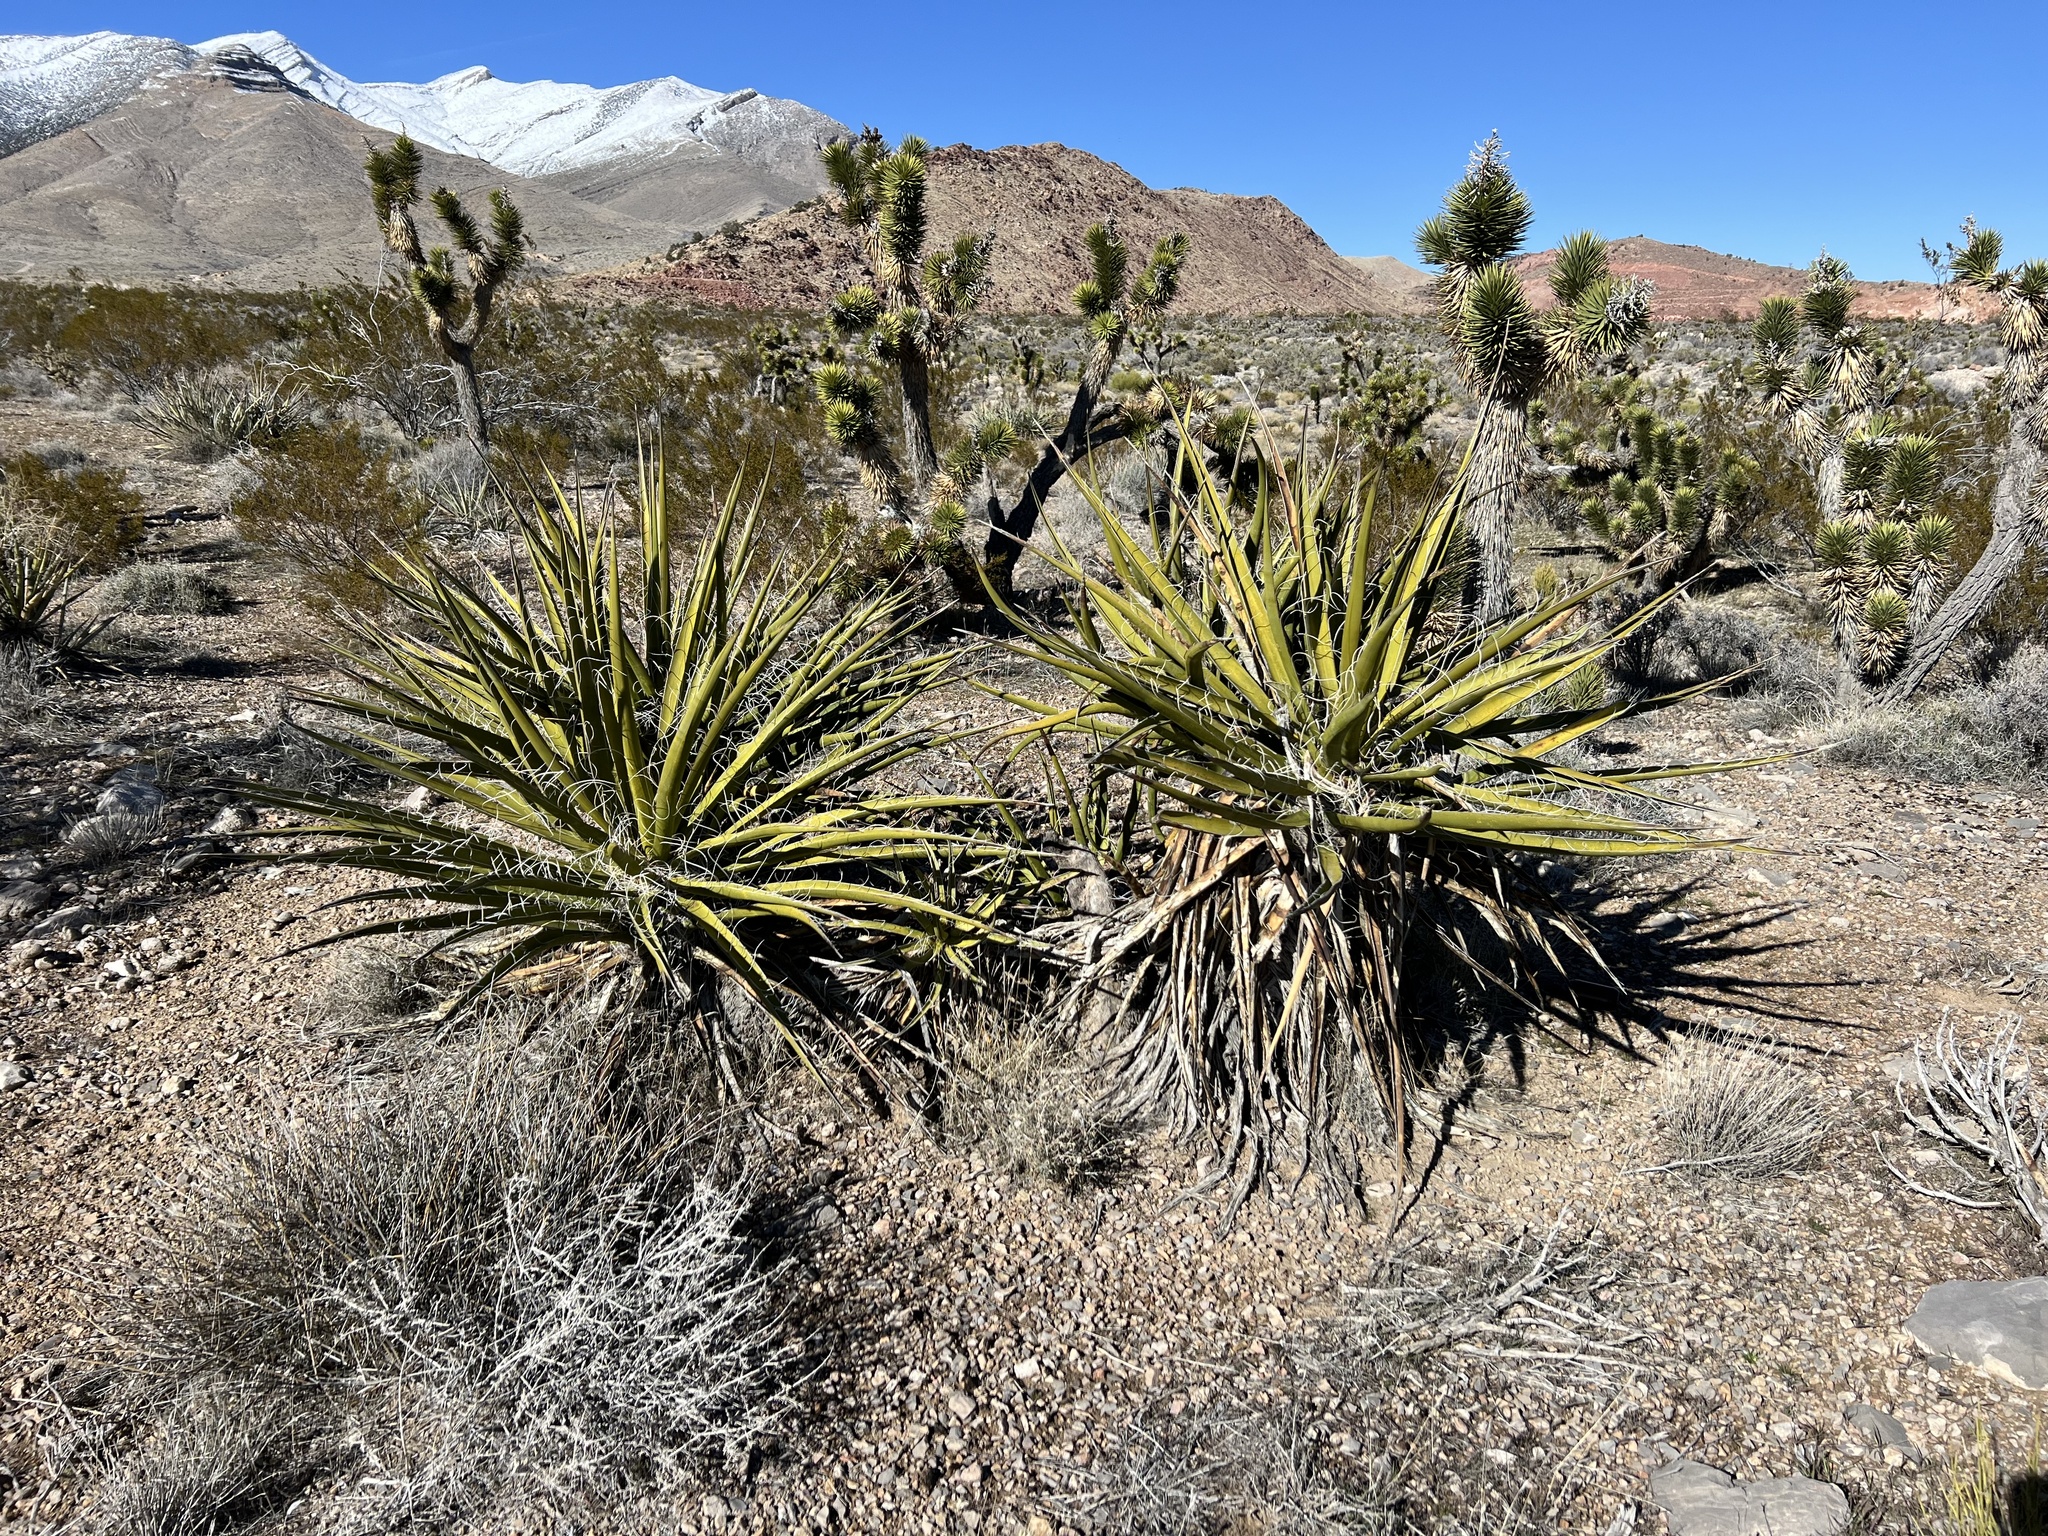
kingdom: Plantae
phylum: Tracheophyta
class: Liliopsida
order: Asparagales
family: Asparagaceae
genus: Yucca
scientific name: Yucca schidigera
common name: Mojave yucca
